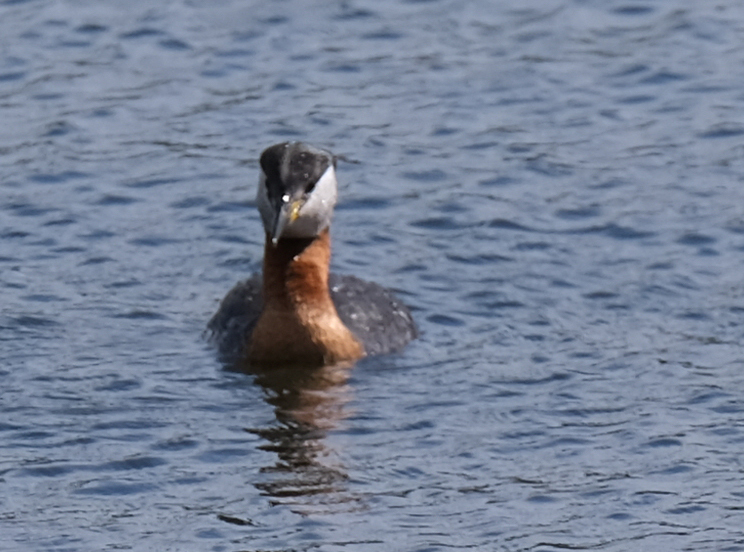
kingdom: Animalia
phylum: Chordata
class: Aves
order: Podicipediformes
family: Podicipedidae
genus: Podiceps
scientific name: Podiceps grisegena
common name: Red-necked grebe
